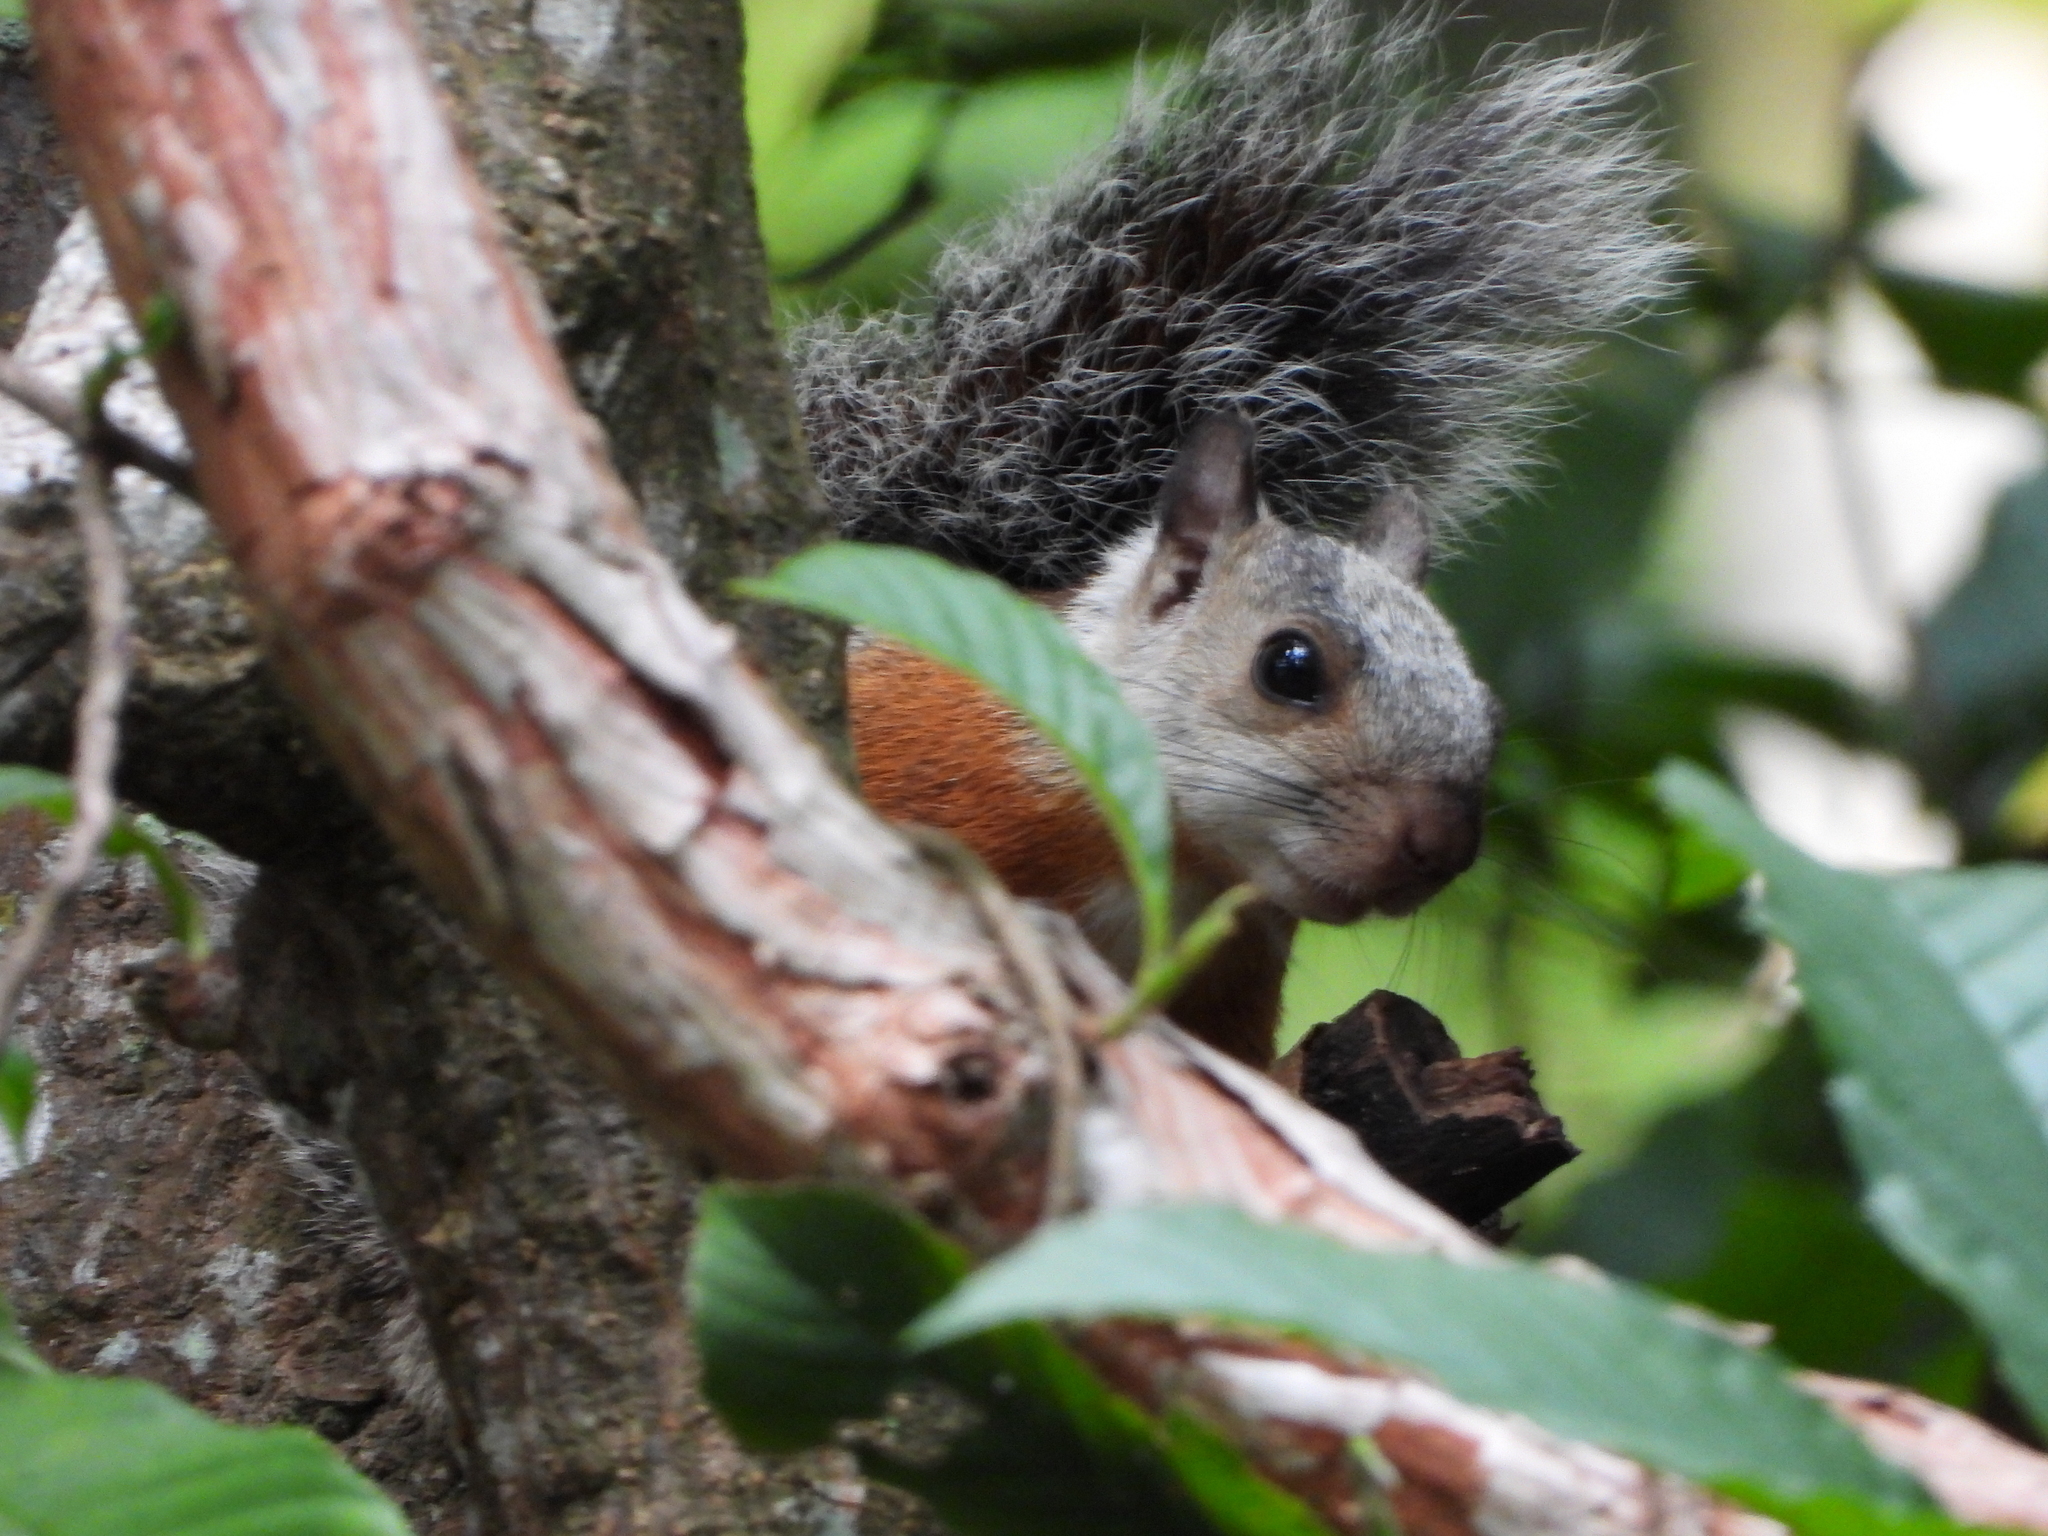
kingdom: Animalia
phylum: Chordata
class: Mammalia
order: Rodentia
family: Sciuridae
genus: Sciurus
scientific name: Sciurus variegatoides
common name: Variegated squirrel
